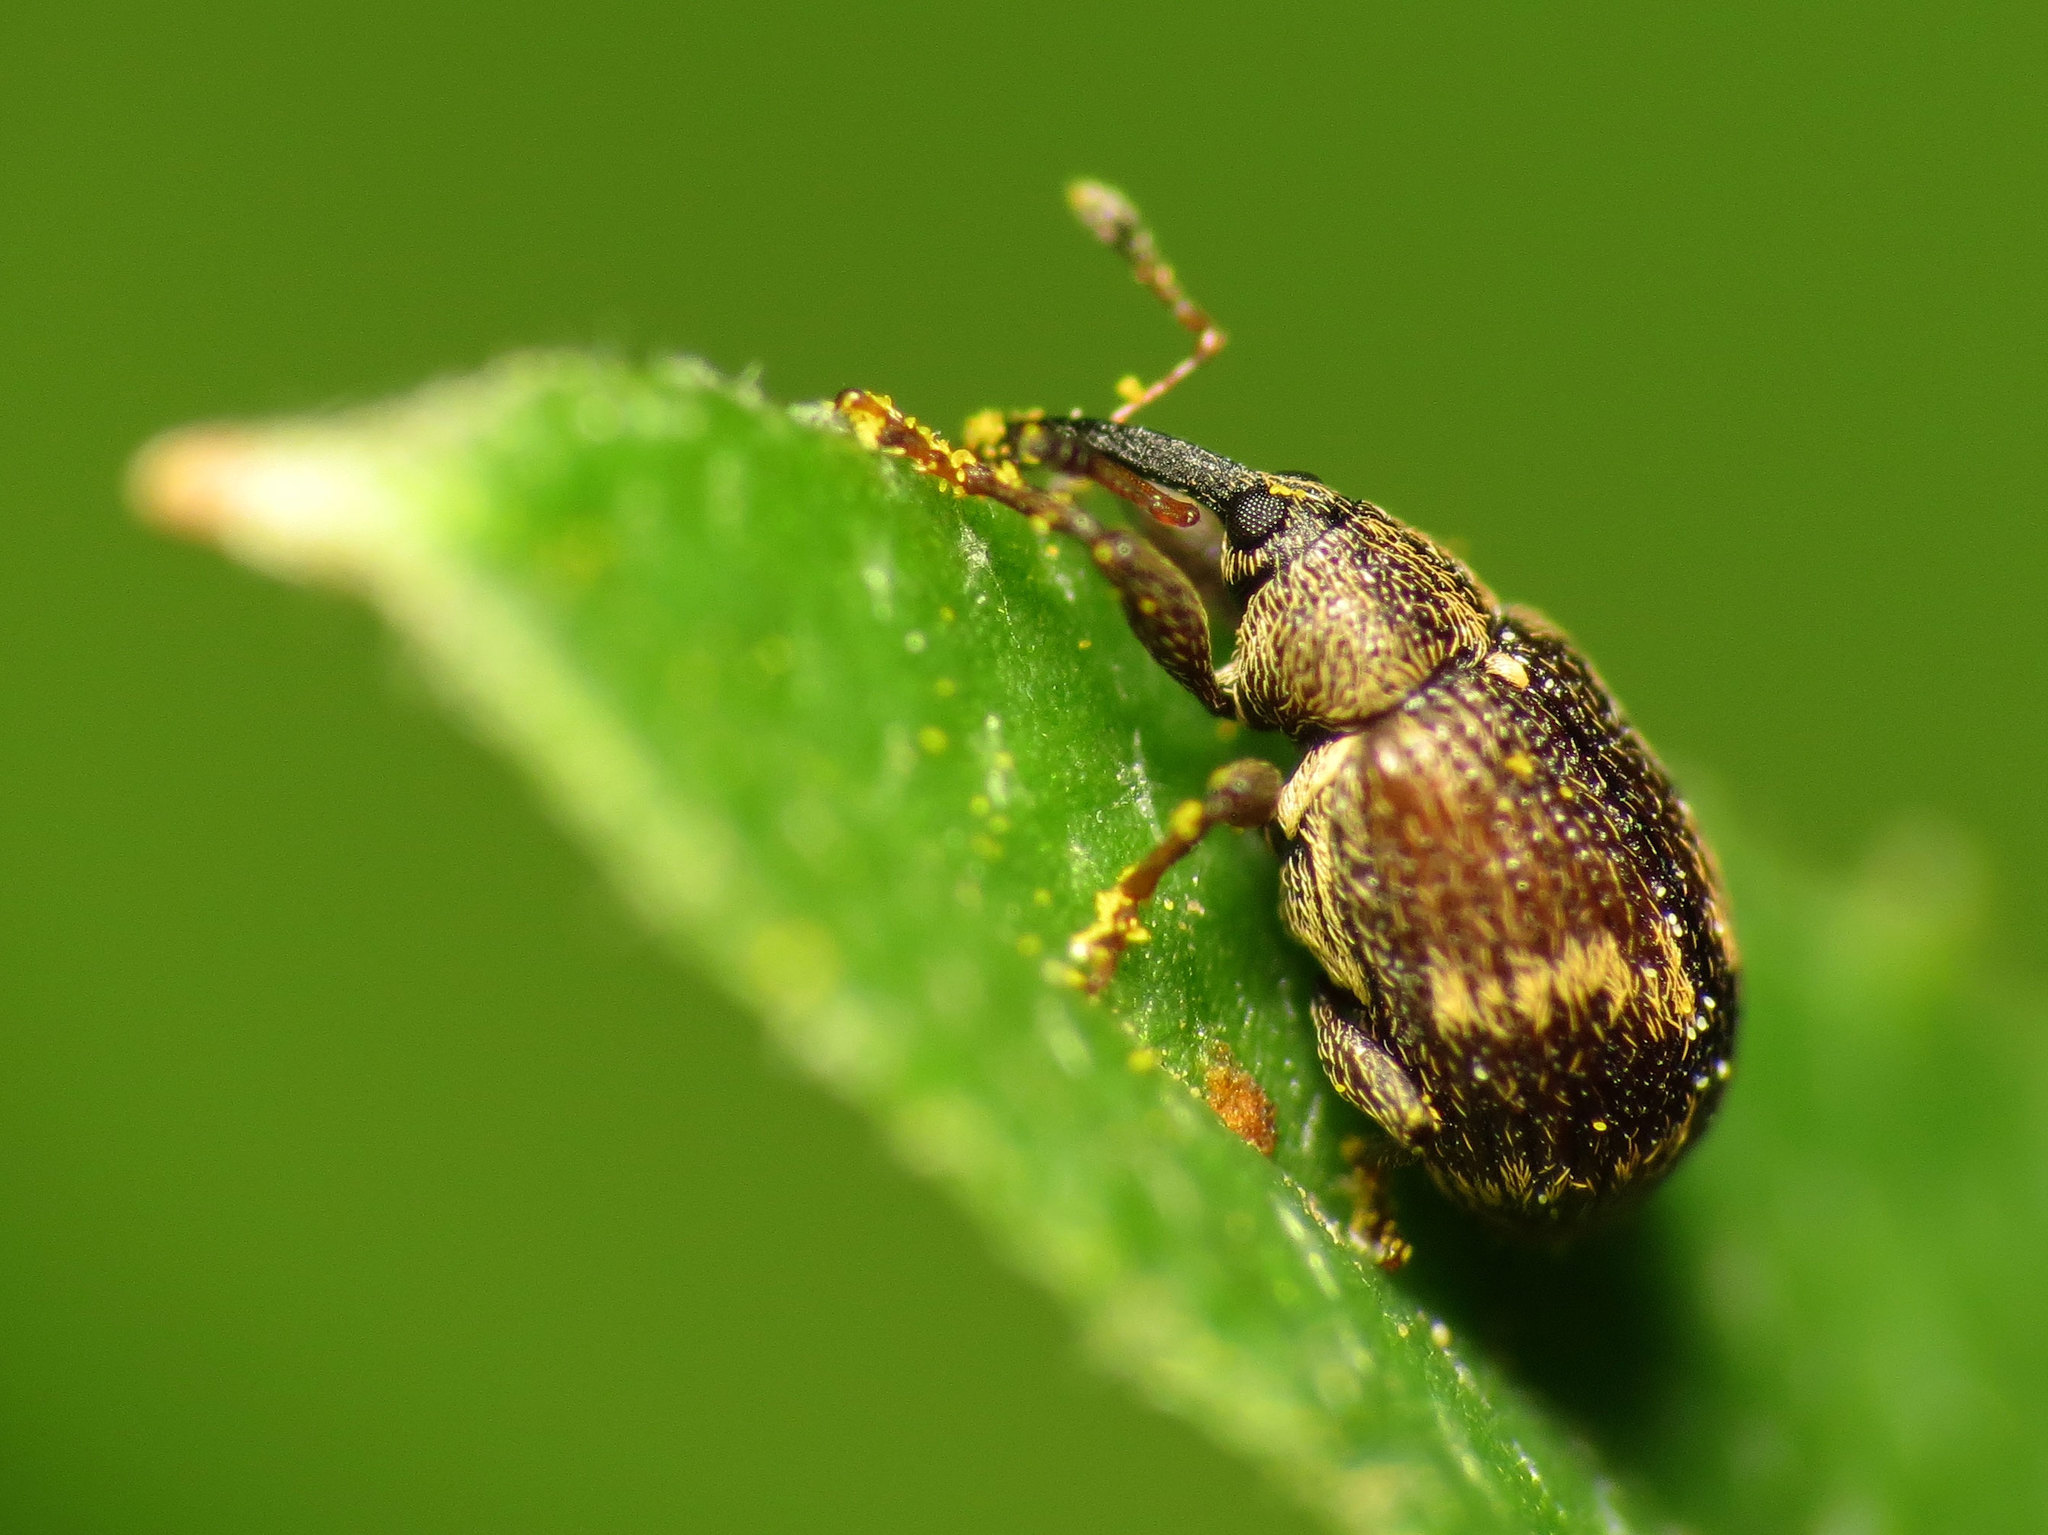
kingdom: Animalia
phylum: Arthropoda
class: Insecta
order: Coleoptera
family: Curculionidae
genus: Anthonomus
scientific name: Anthonomus signatus
